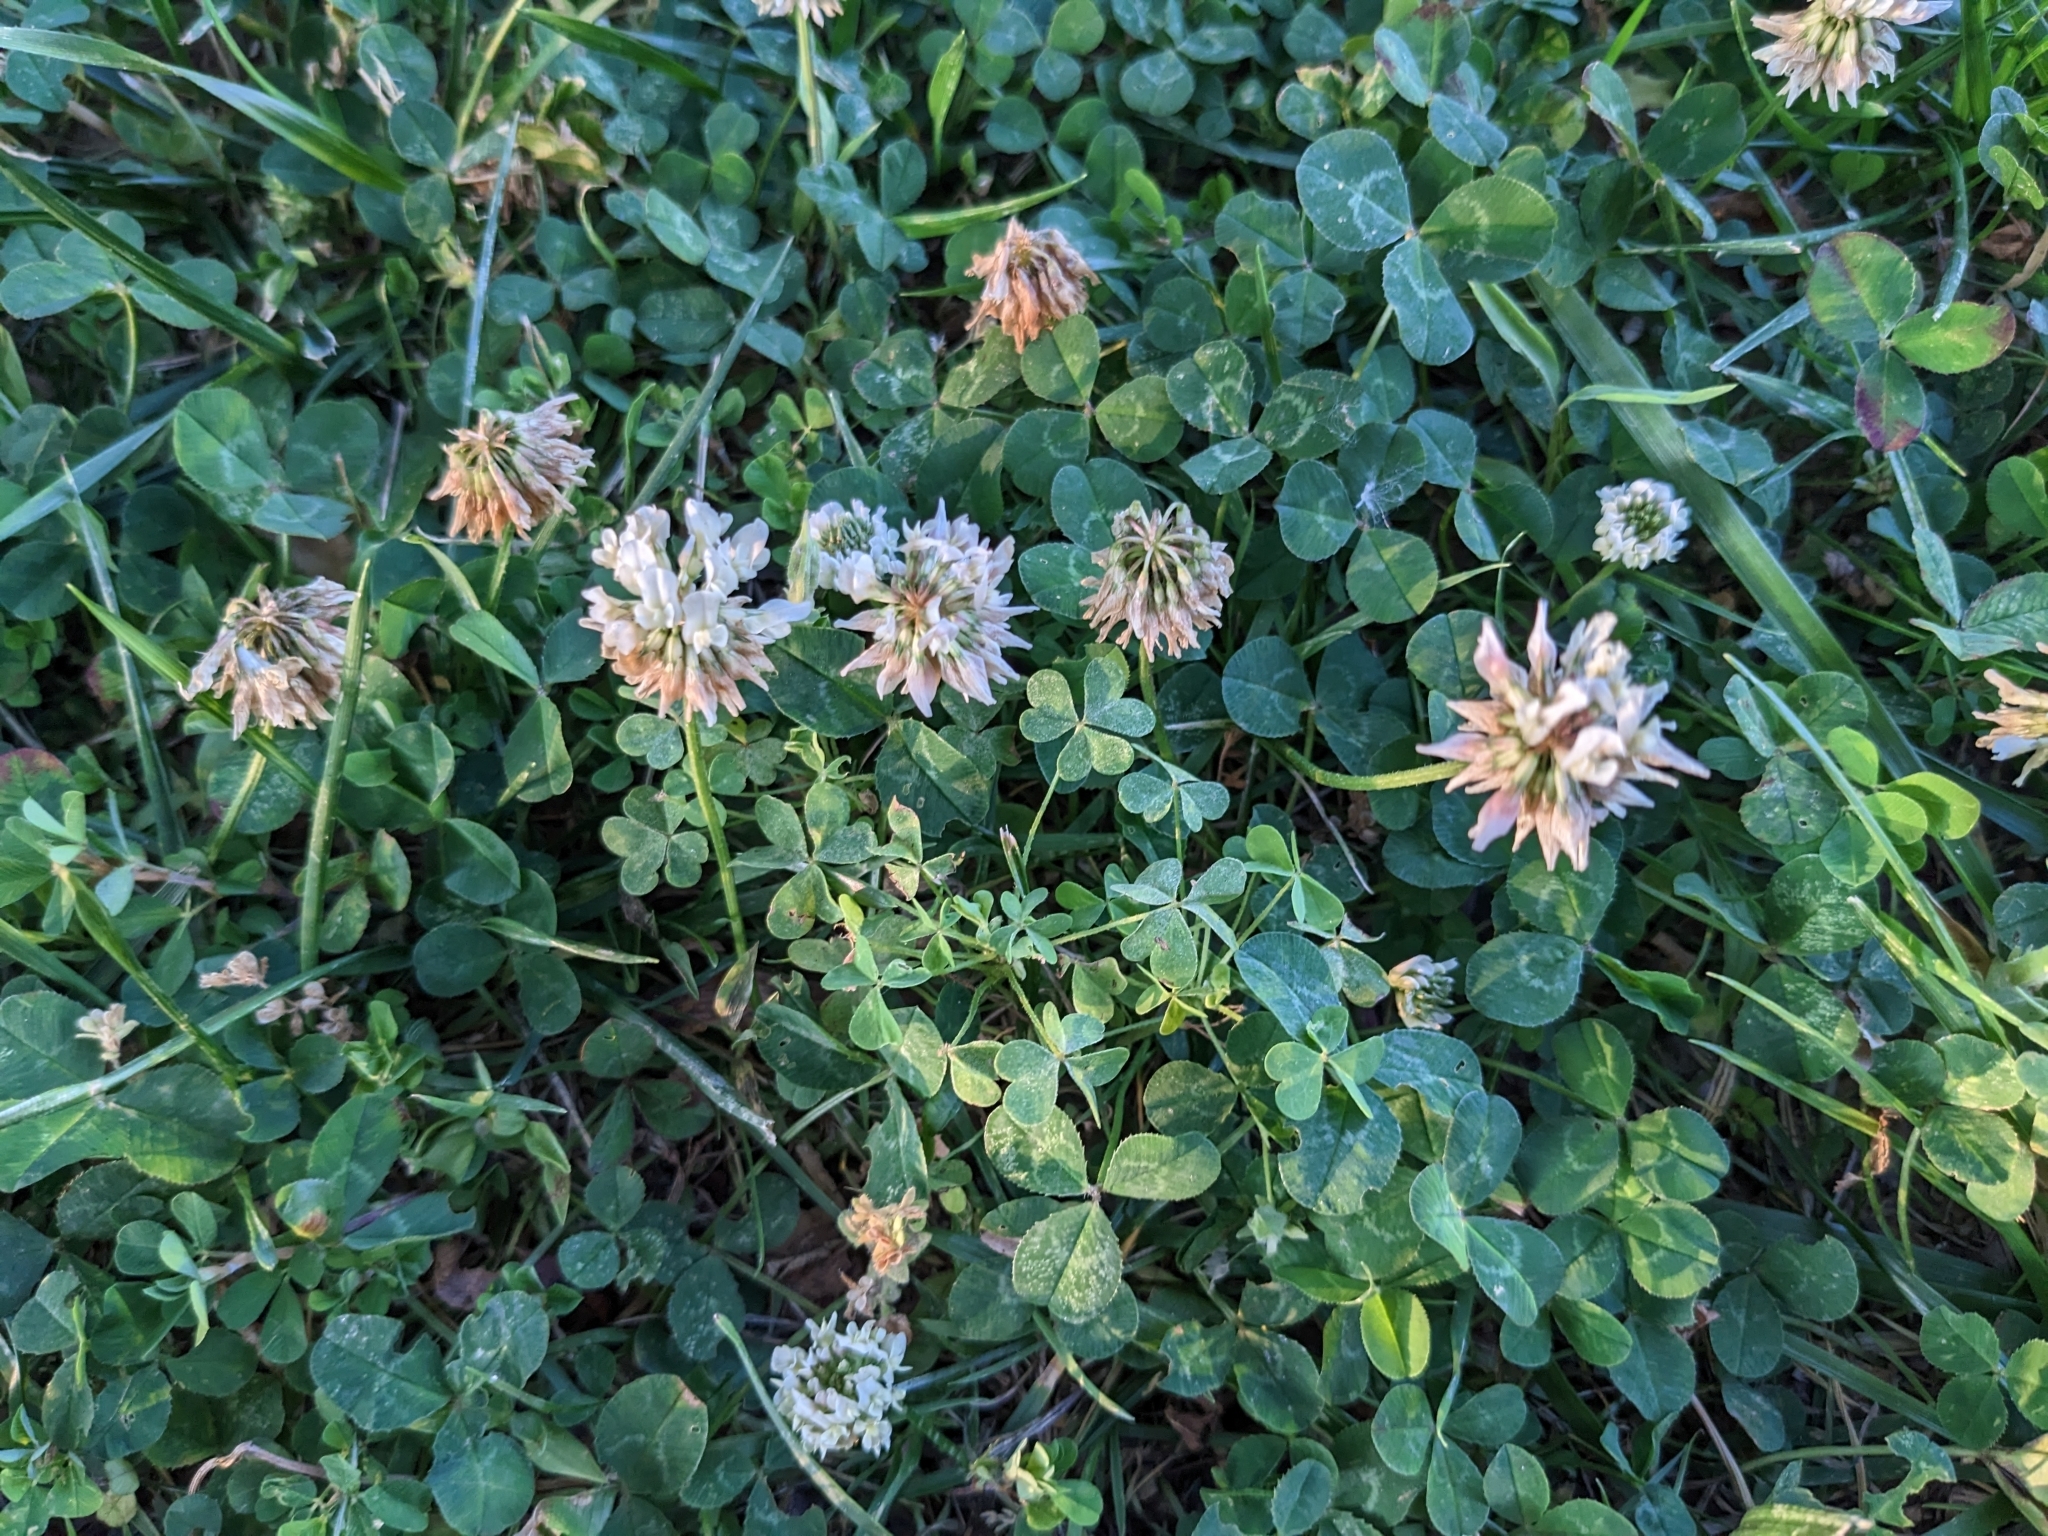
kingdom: Plantae
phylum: Tracheophyta
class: Magnoliopsida
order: Fabales
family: Fabaceae
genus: Trifolium
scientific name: Trifolium repens
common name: White clover
